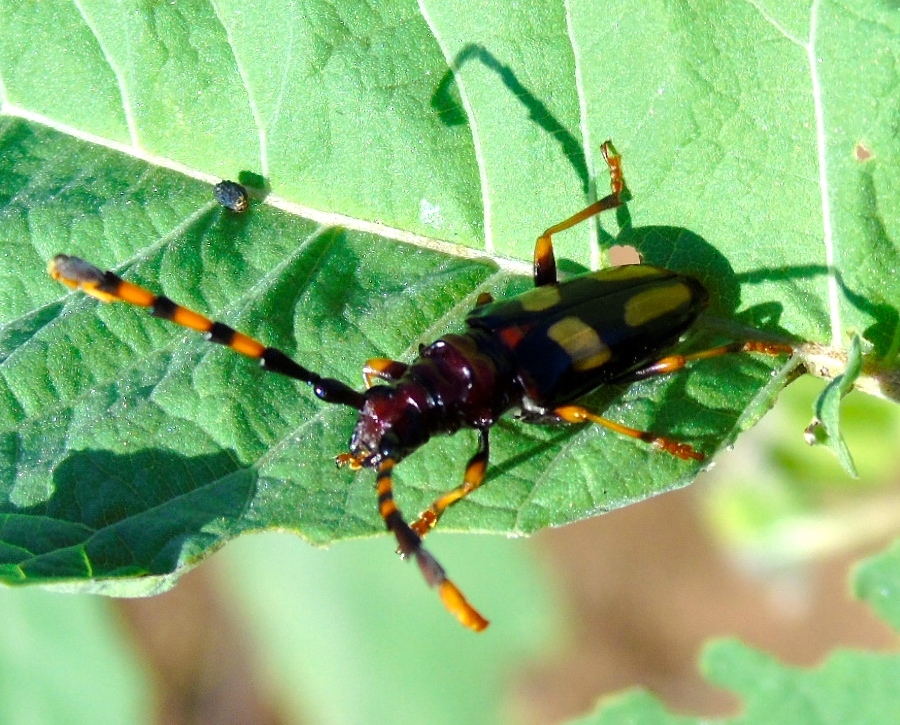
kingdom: Animalia
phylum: Arthropoda
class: Insecta
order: Coleoptera
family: Cerambycidae
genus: Trachyderes
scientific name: Trachyderes mandibularis
